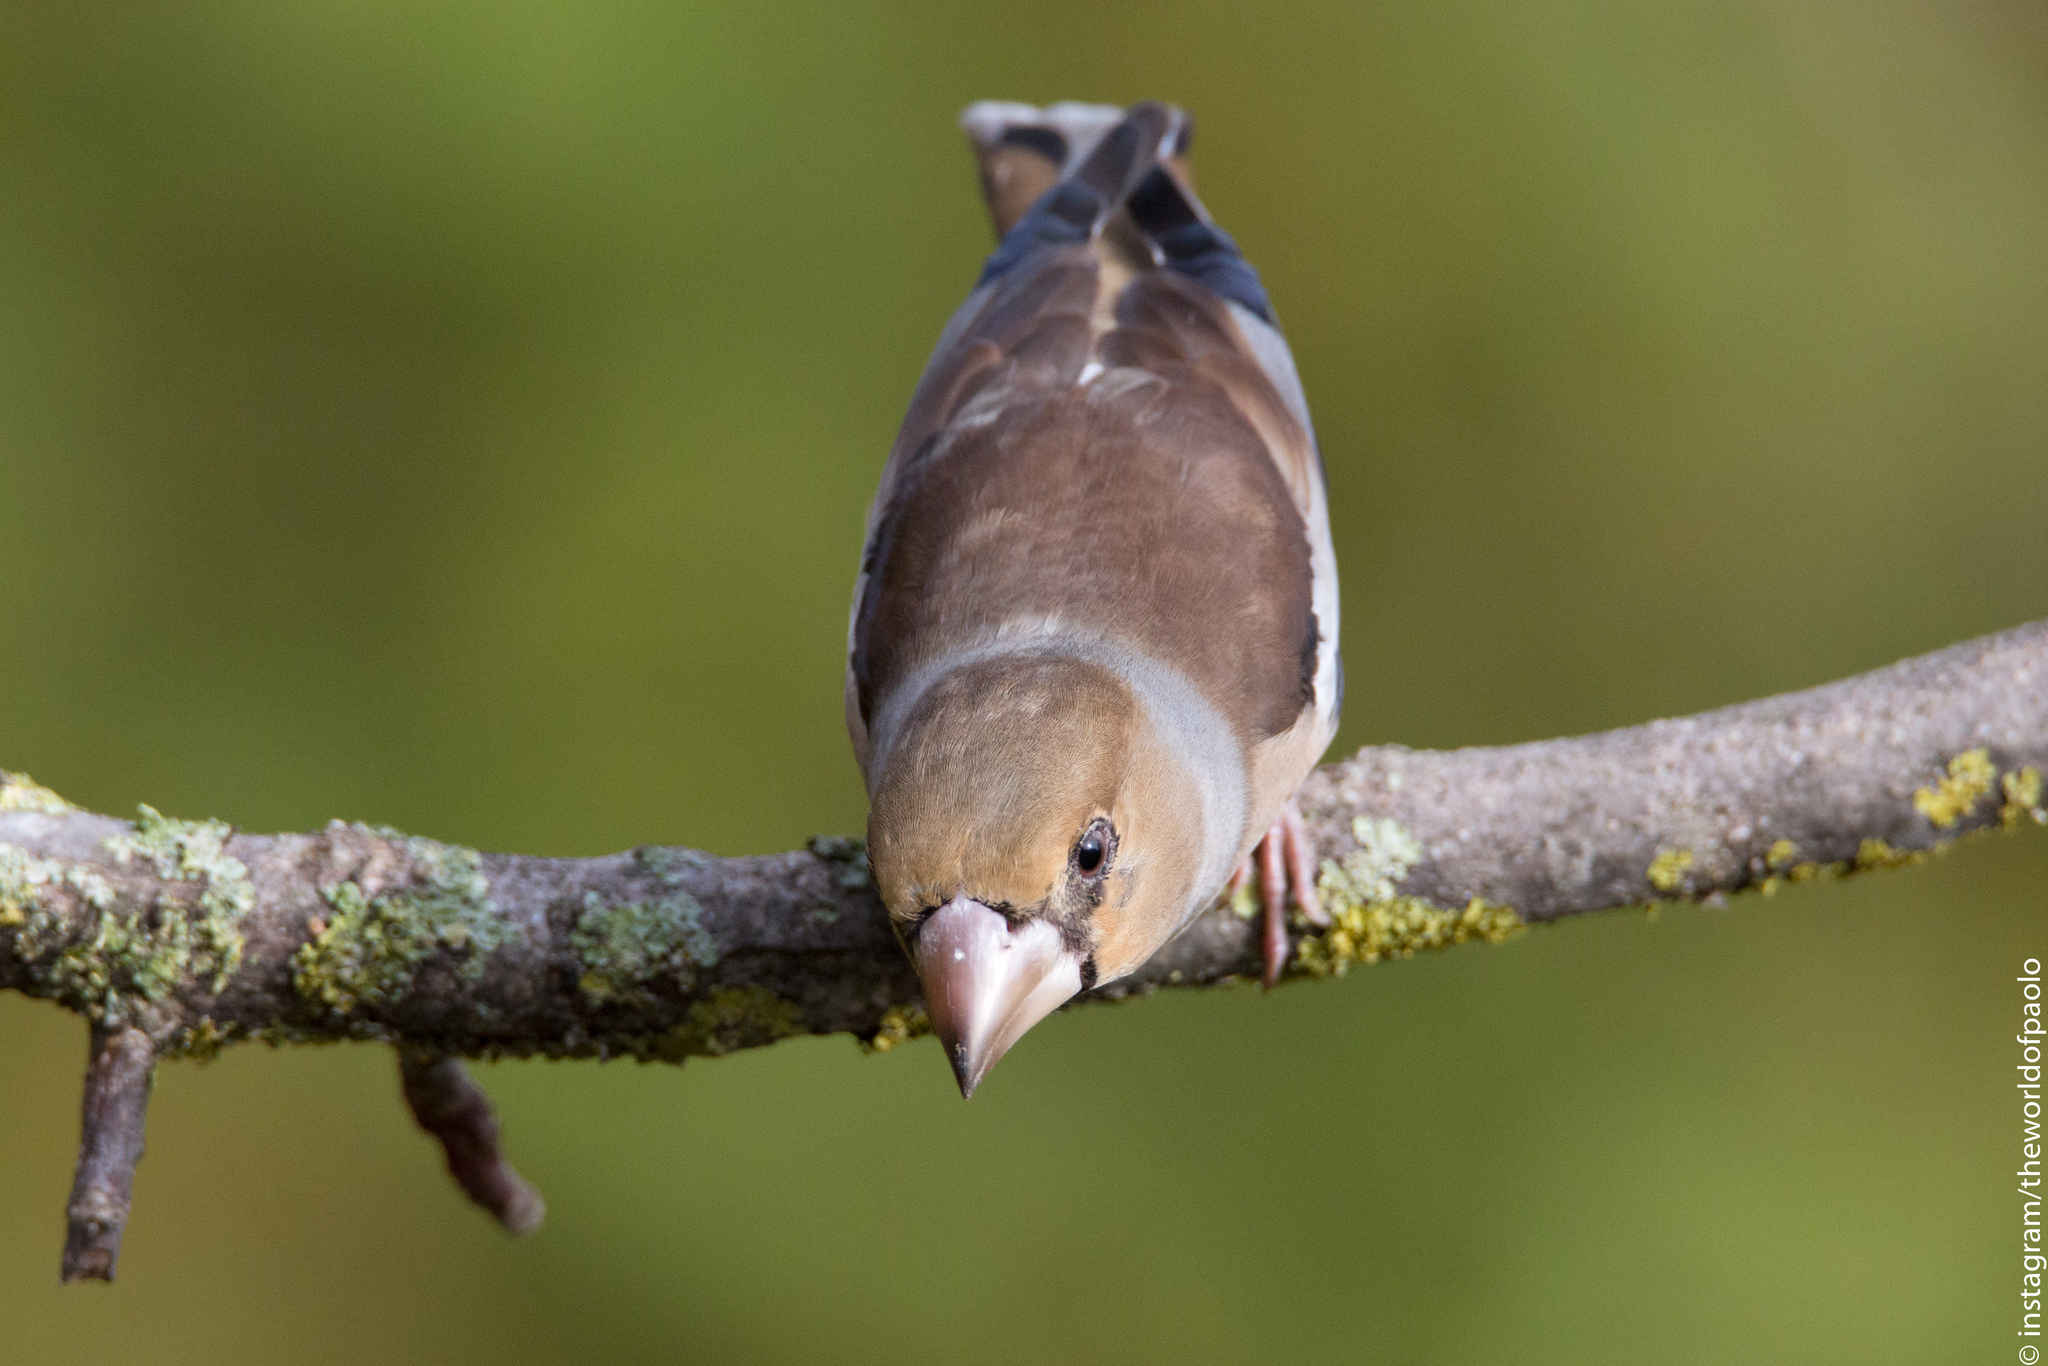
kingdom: Animalia
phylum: Chordata
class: Aves
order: Passeriformes
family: Fringillidae
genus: Coccothraustes
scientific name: Coccothraustes coccothraustes
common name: Hawfinch
